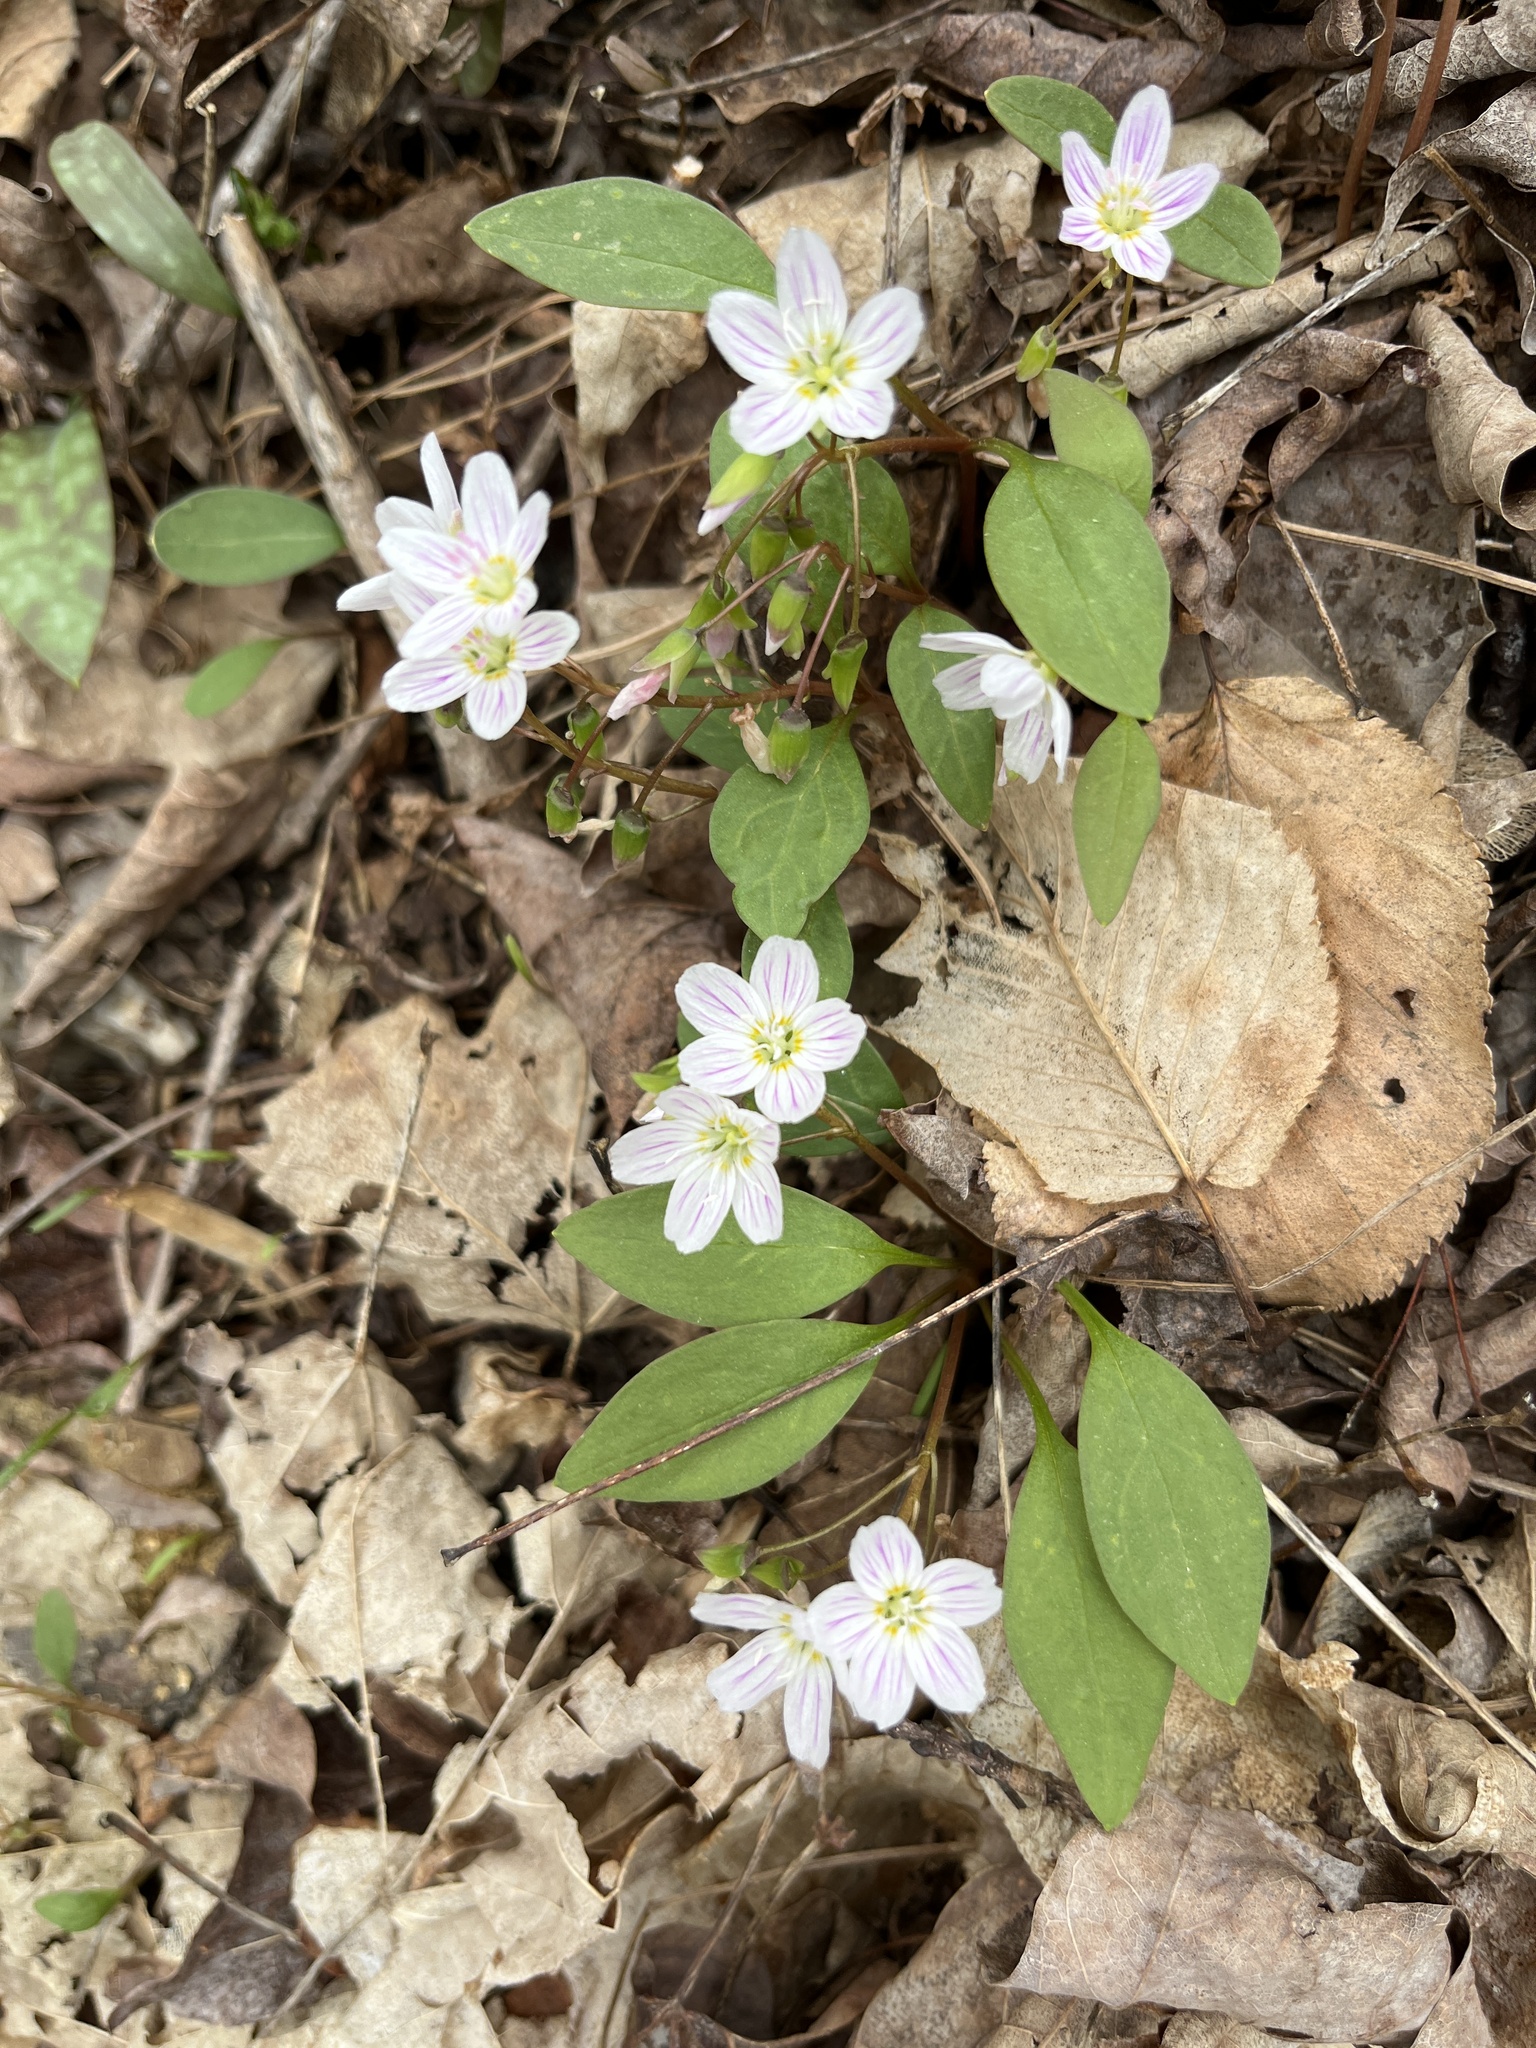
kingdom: Plantae
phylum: Tracheophyta
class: Magnoliopsida
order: Caryophyllales
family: Montiaceae
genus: Claytonia
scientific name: Claytonia caroliniana
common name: Carolina spring beauty
